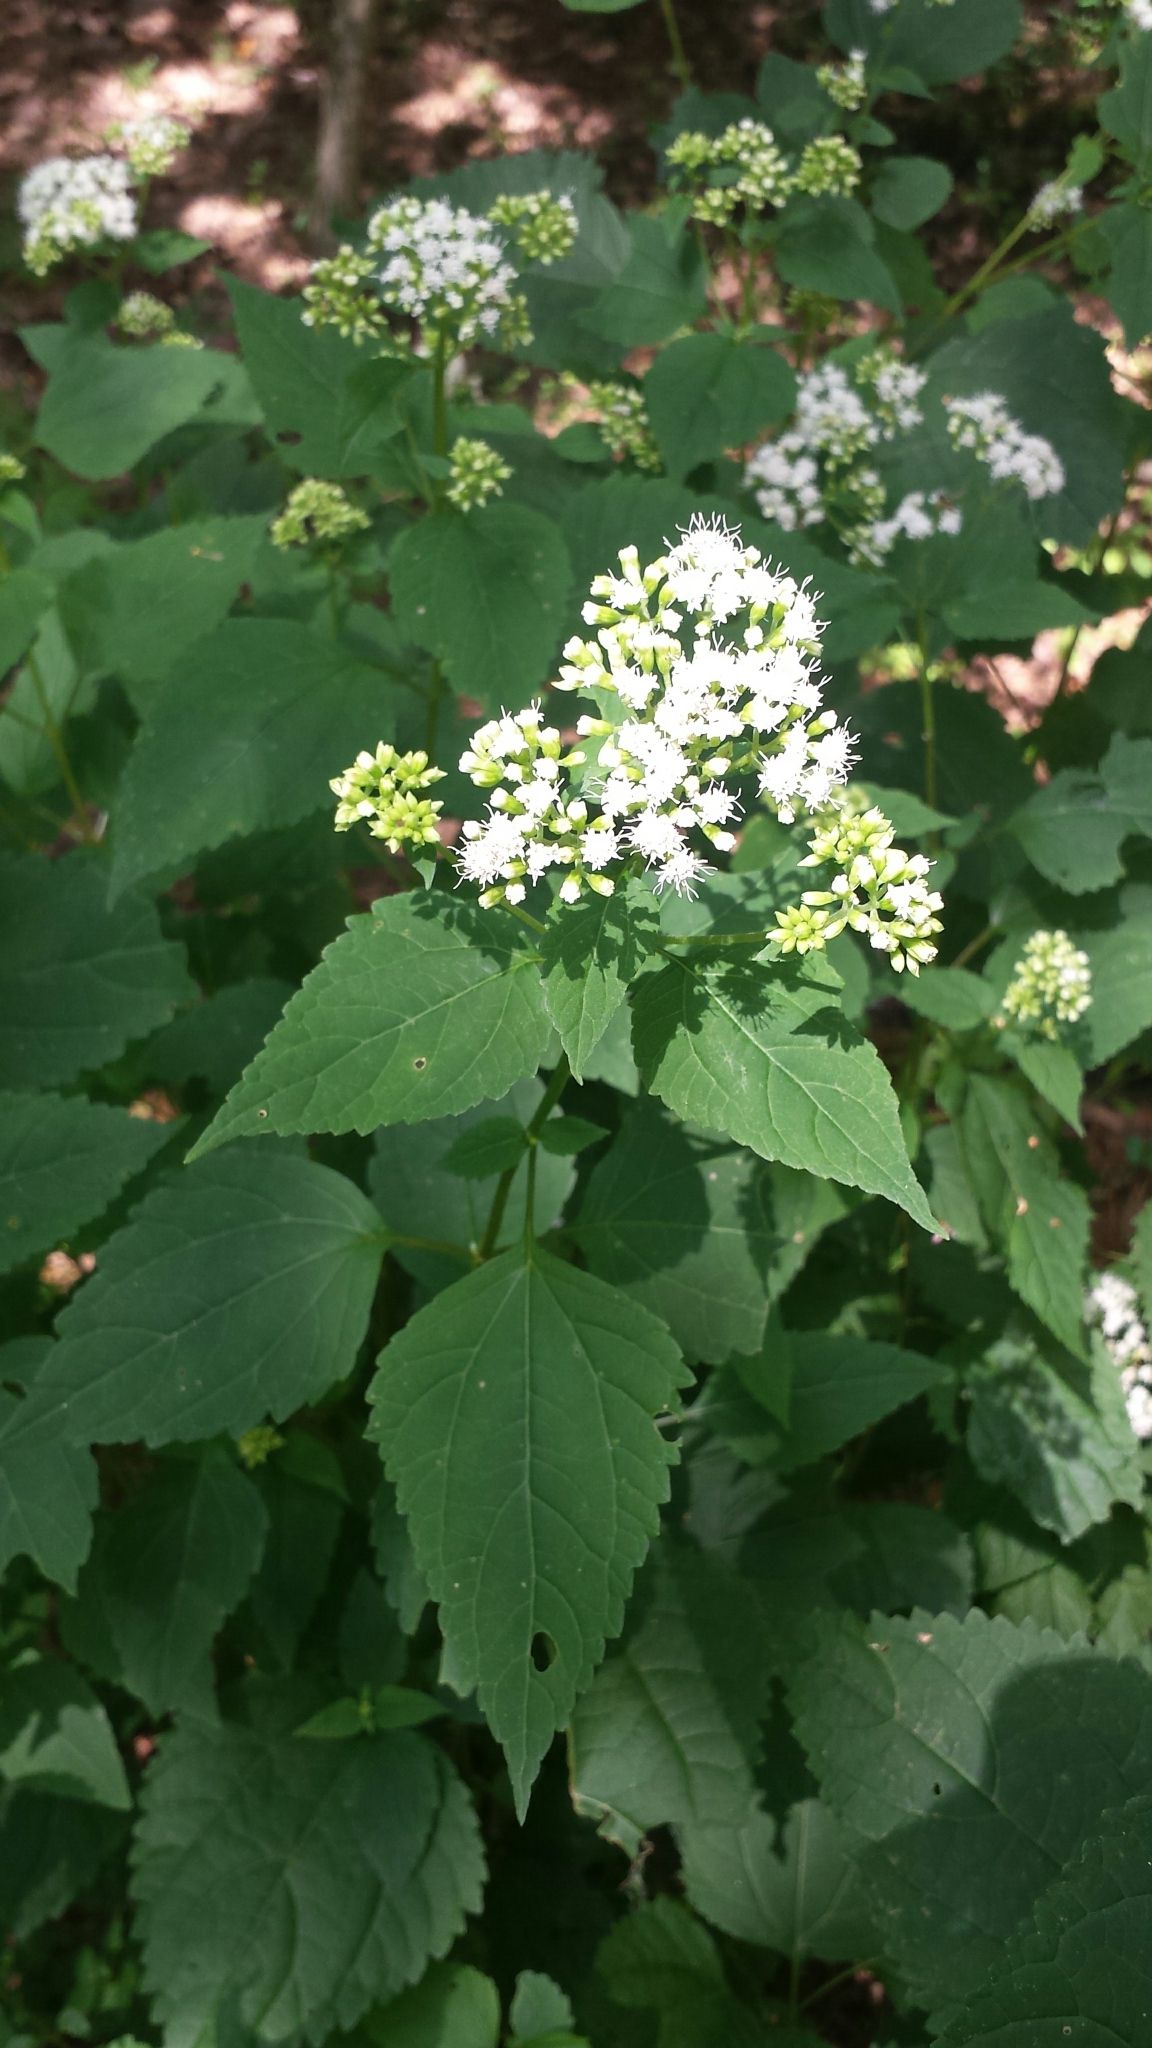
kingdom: Plantae
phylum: Tracheophyta
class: Magnoliopsida
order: Asterales
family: Asteraceae
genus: Ageratina
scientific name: Ageratina altissima
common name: White snakeroot
